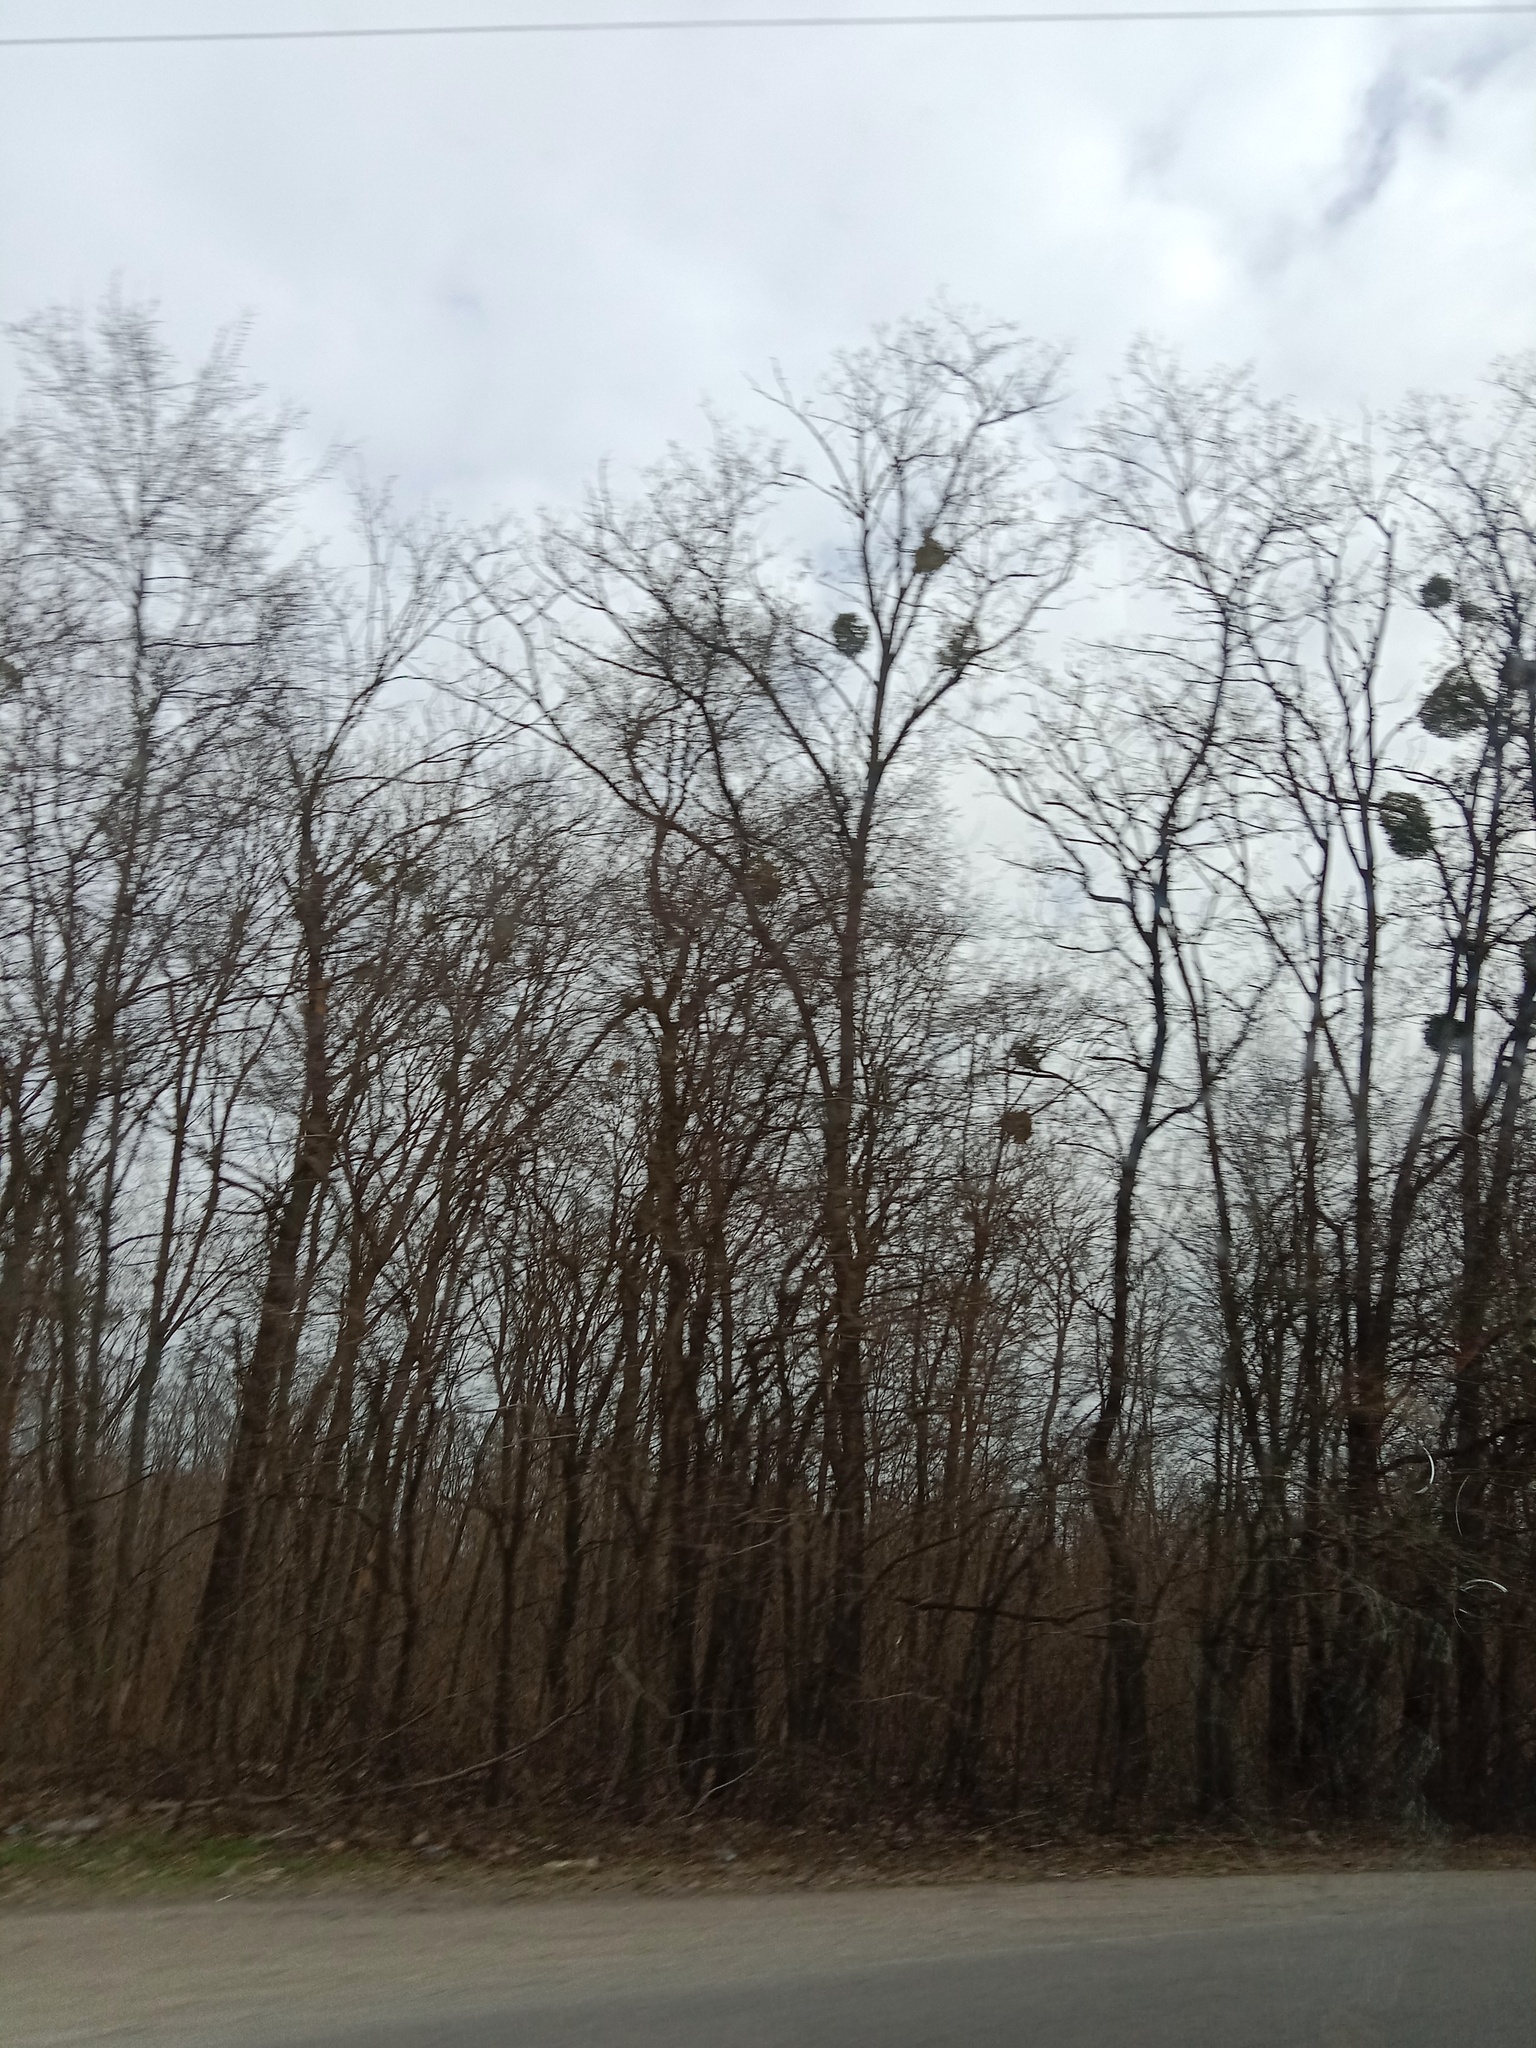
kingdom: Plantae
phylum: Tracheophyta
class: Magnoliopsida
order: Santalales
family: Viscaceae
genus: Viscum
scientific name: Viscum album
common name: Mistletoe
